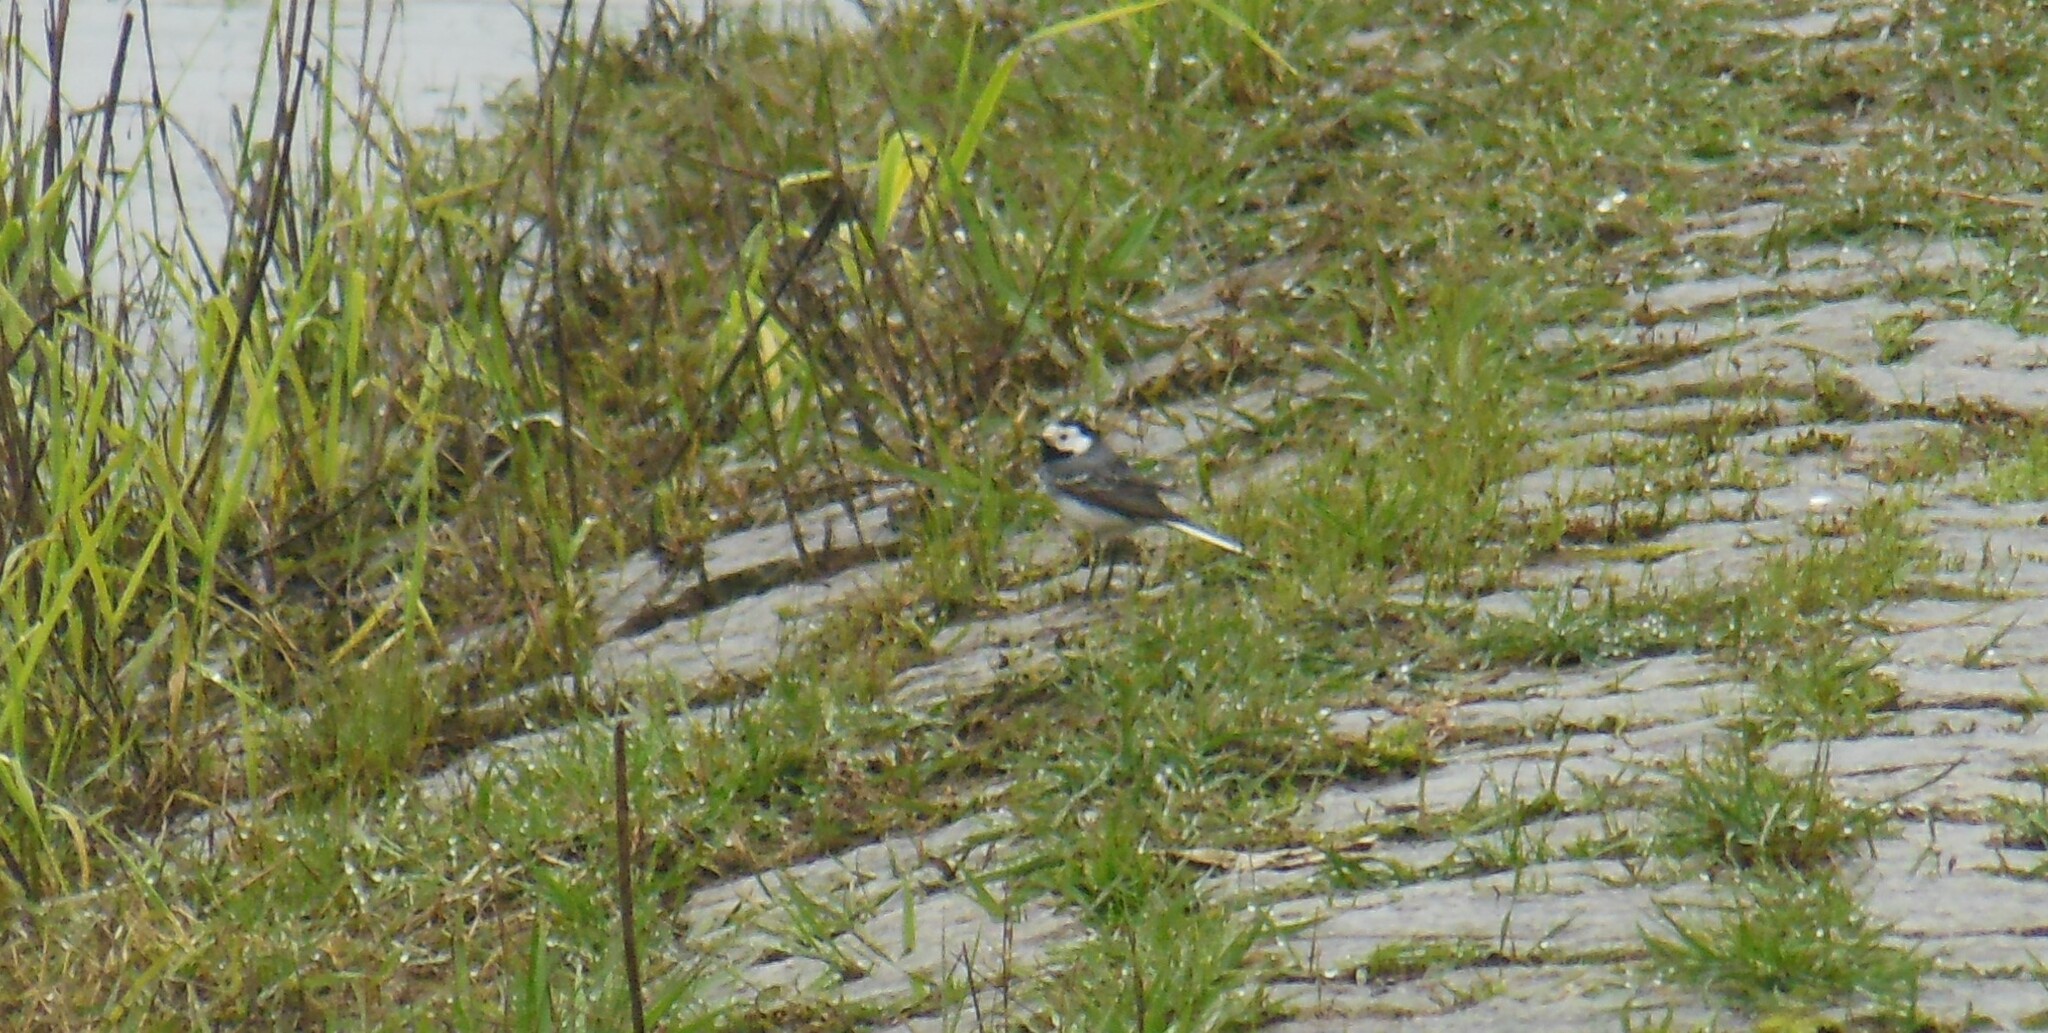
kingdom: Animalia
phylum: Chordata
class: Aves
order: Passeriformes
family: Motacillidae
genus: Motacilla
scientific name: Motacilla alba
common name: White wagtail
